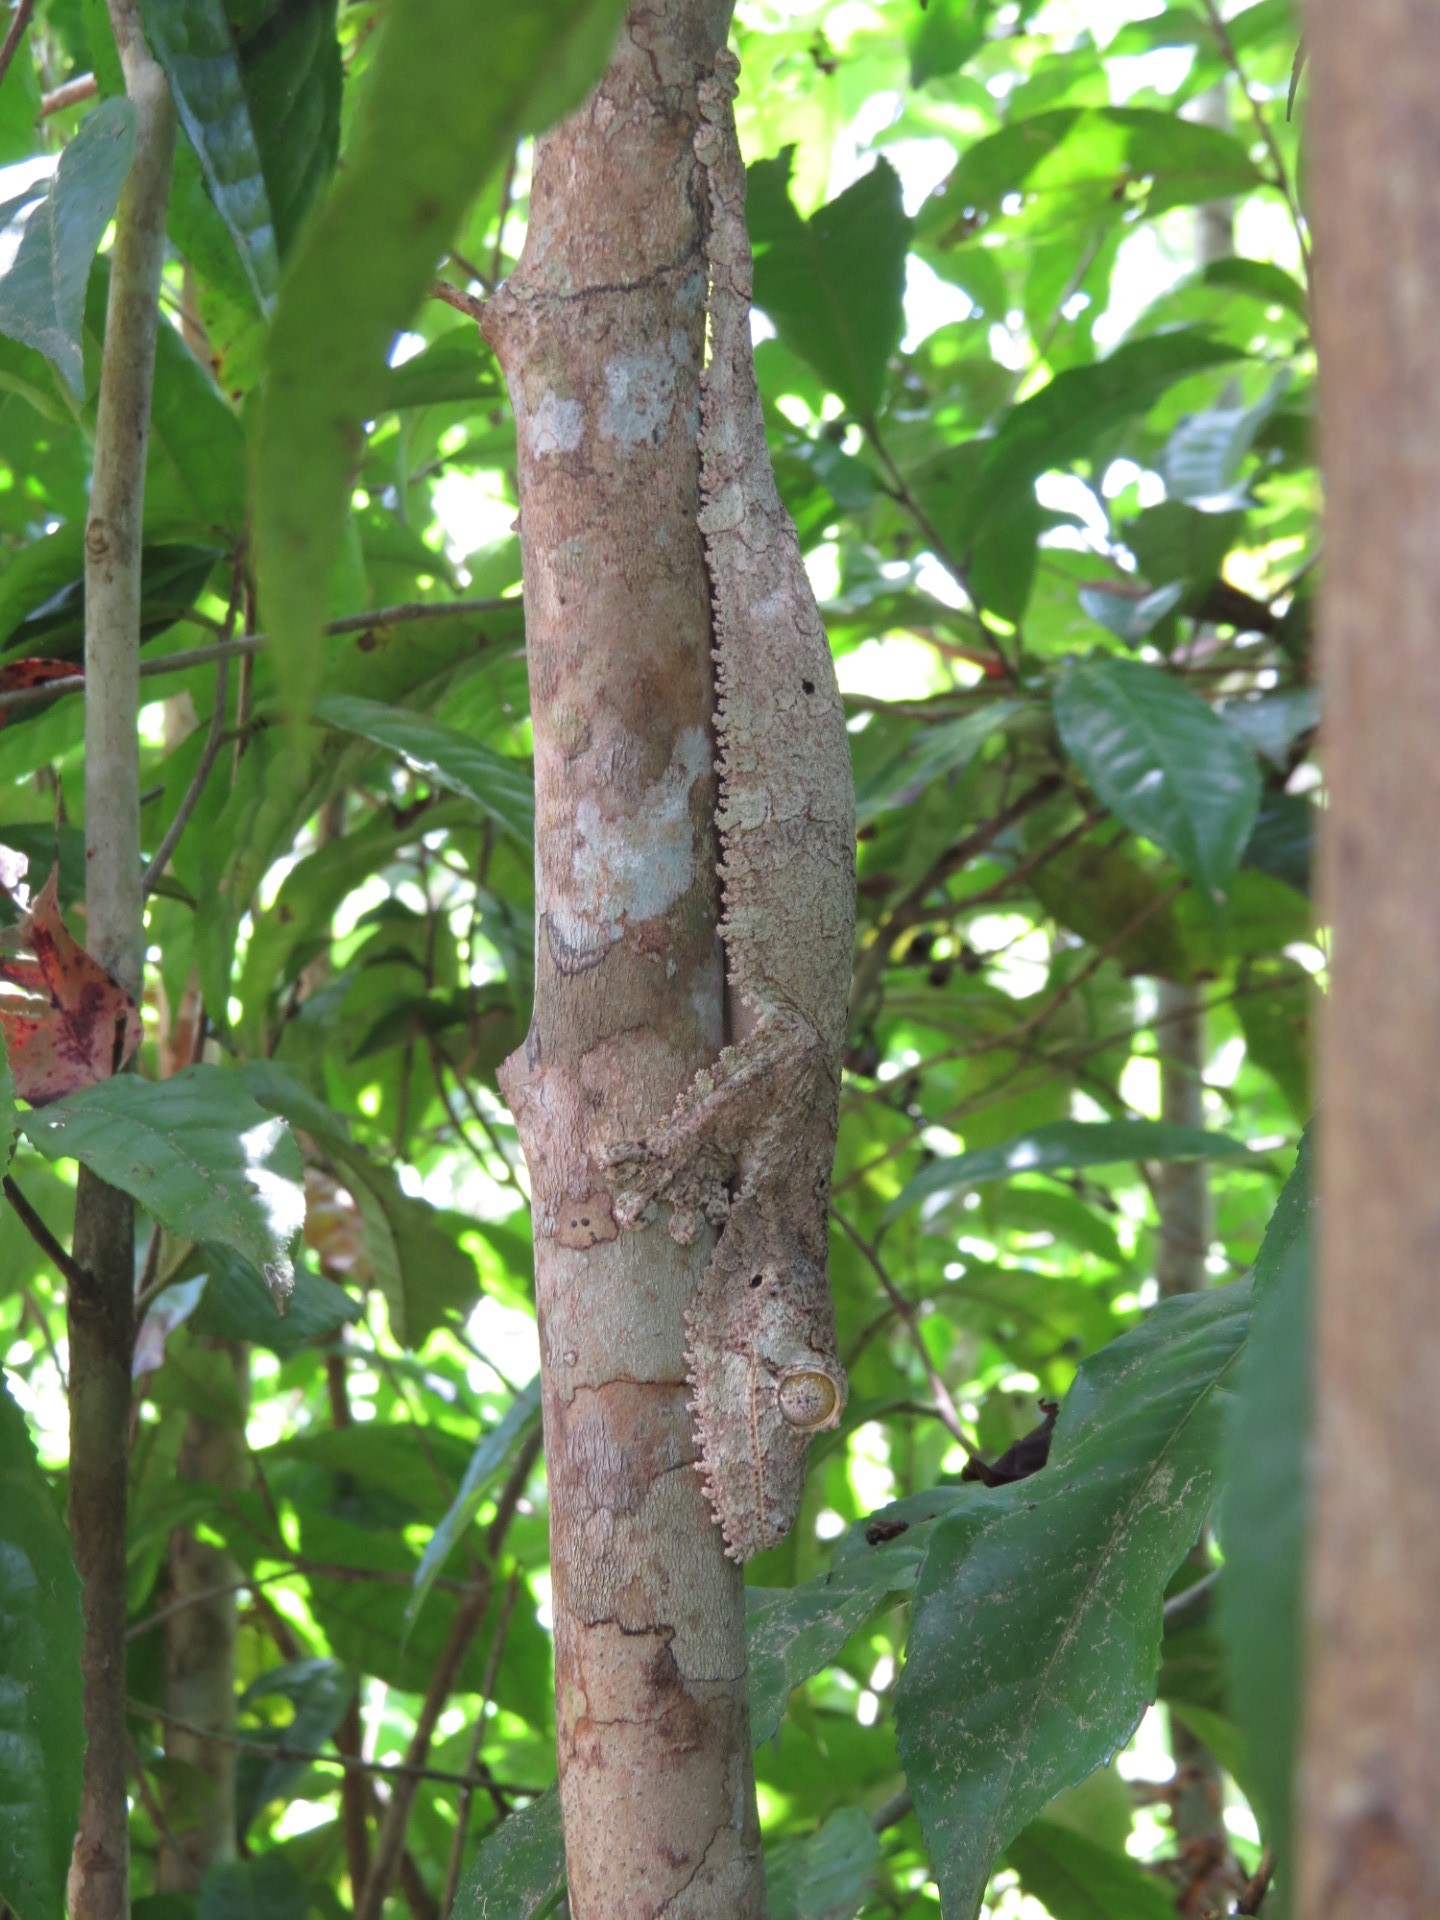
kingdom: Animalia
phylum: Chordata
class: Squamata
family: Gekkonidae
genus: Uroplatus
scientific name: Uroplatus sikorae
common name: Southern flat-tail gecko
